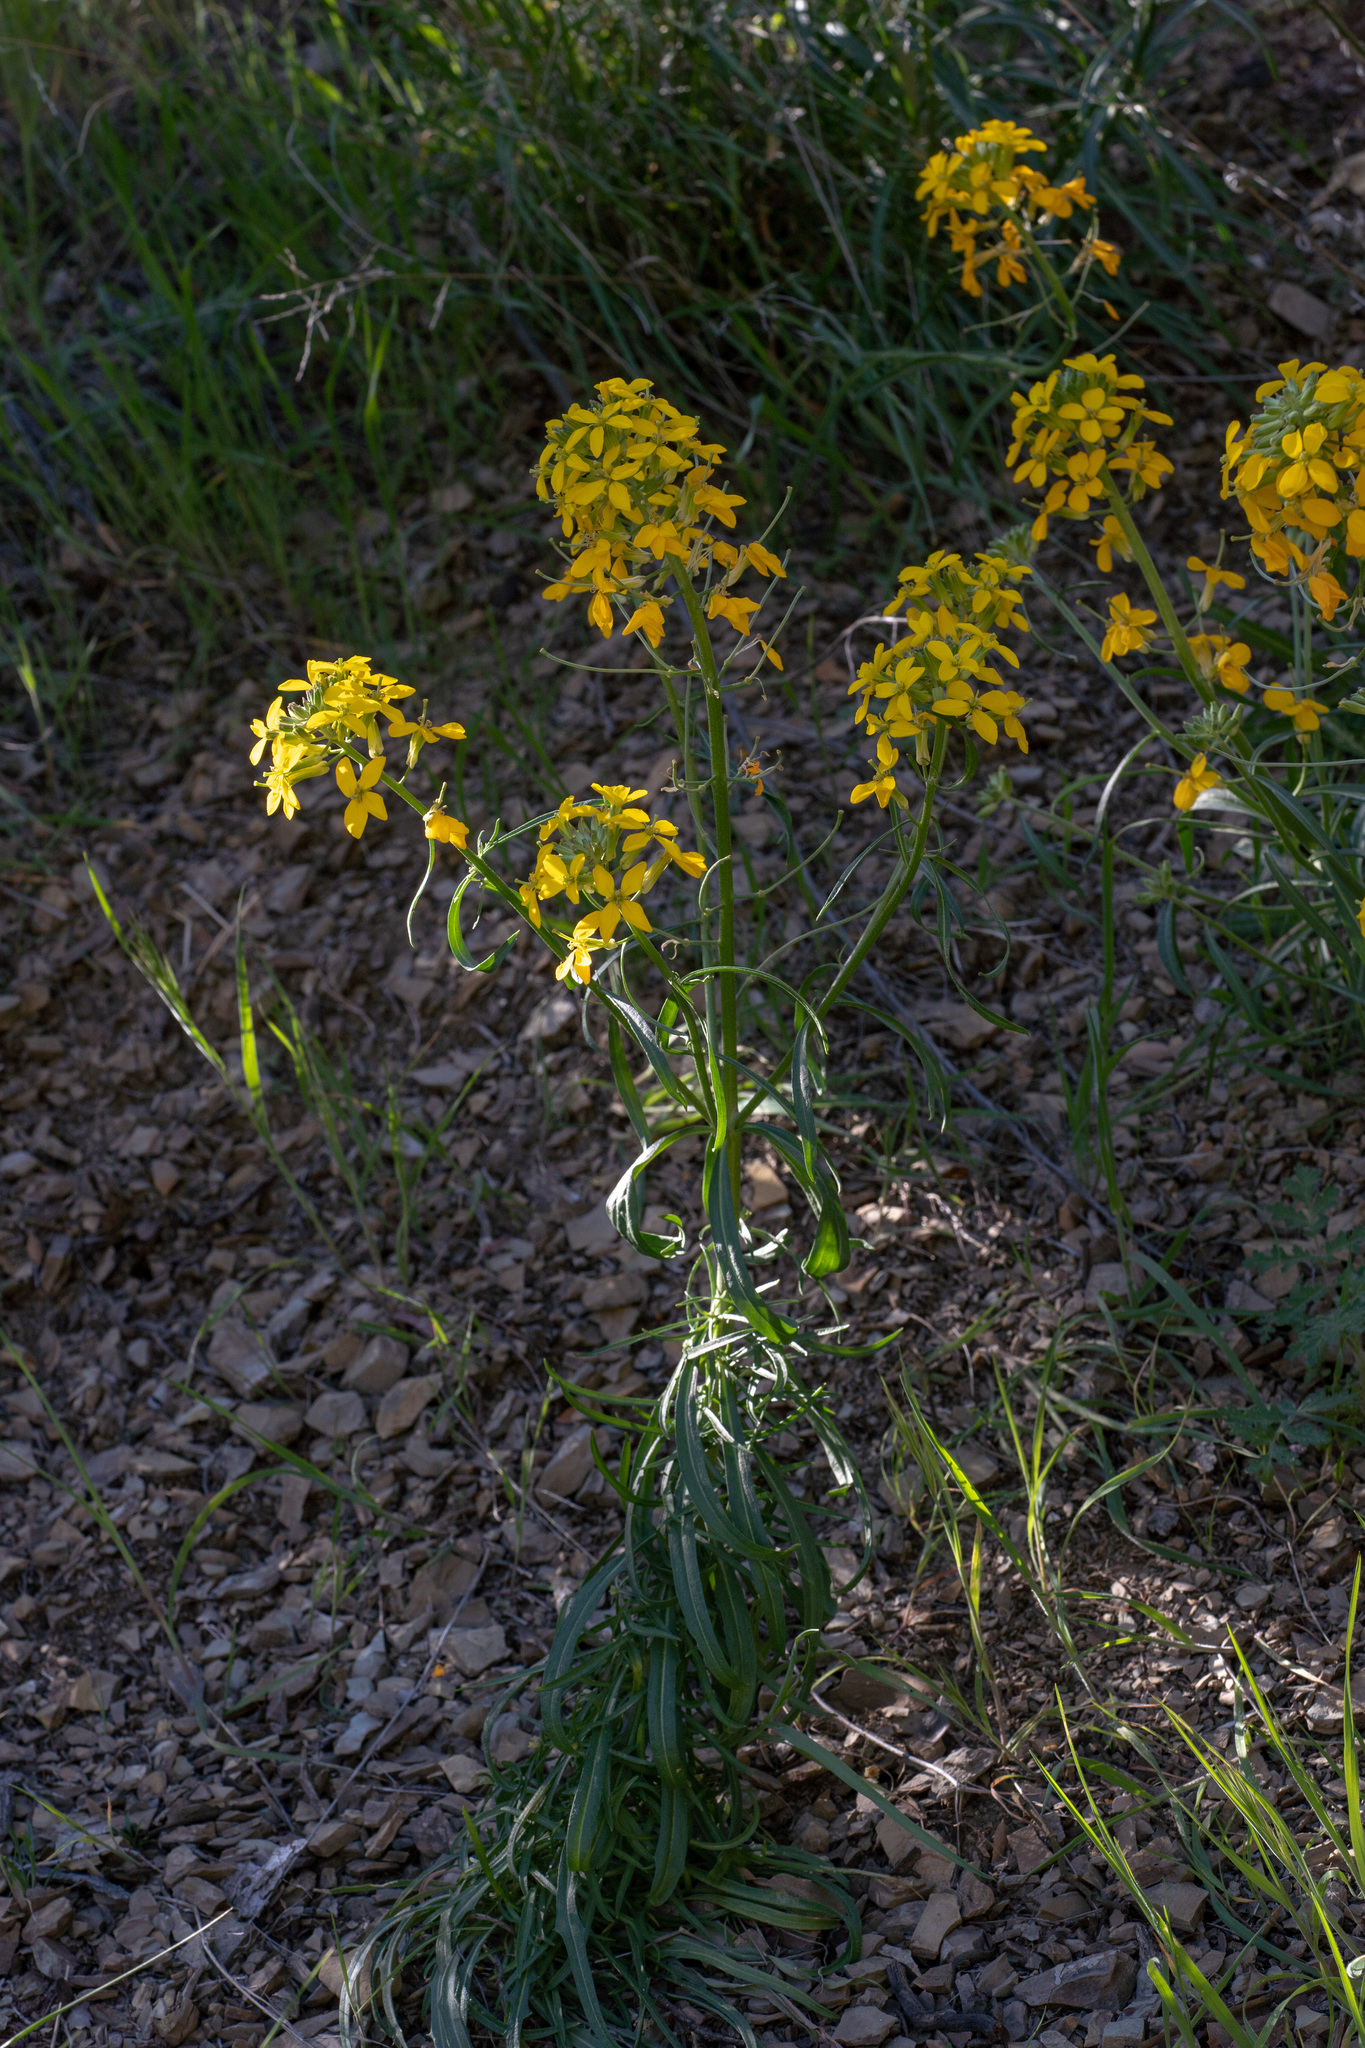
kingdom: Plantae
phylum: Tracheophyta
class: Magnoliopsida
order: Brassicales
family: Brassicaceae
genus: Erysimum
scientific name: Erysimum capitatum
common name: Western wallflower
